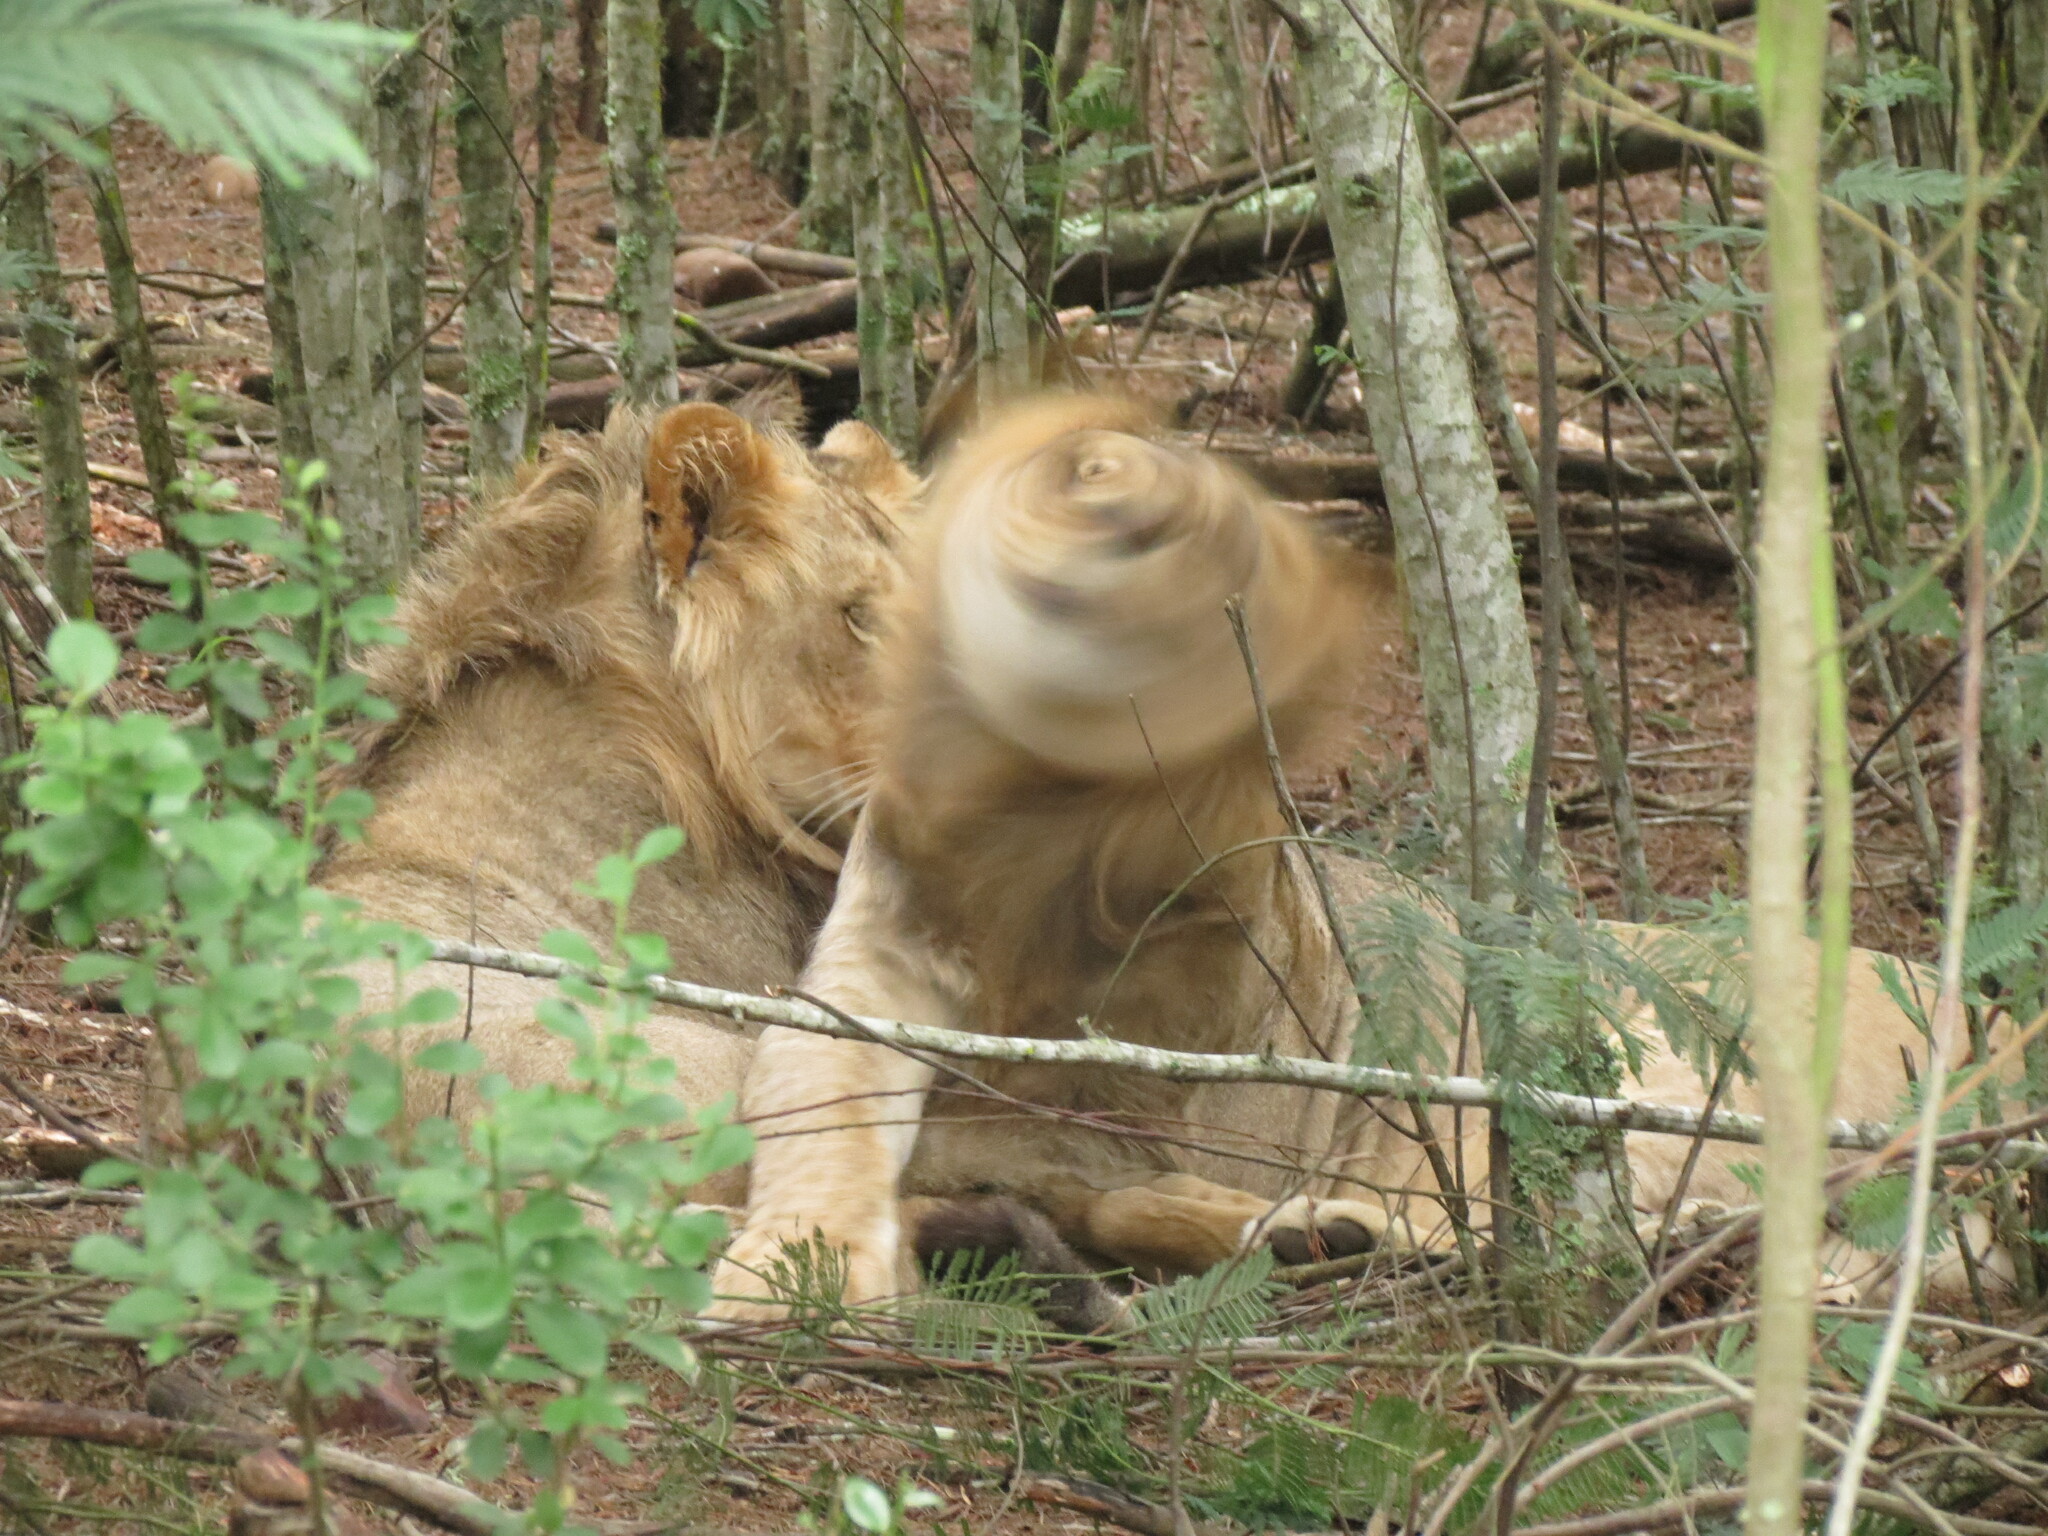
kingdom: Animalia
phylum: Chordata
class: Mammalia
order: Carnivora
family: Felidae
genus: Panthera
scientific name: Panthera leo
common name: Lion
